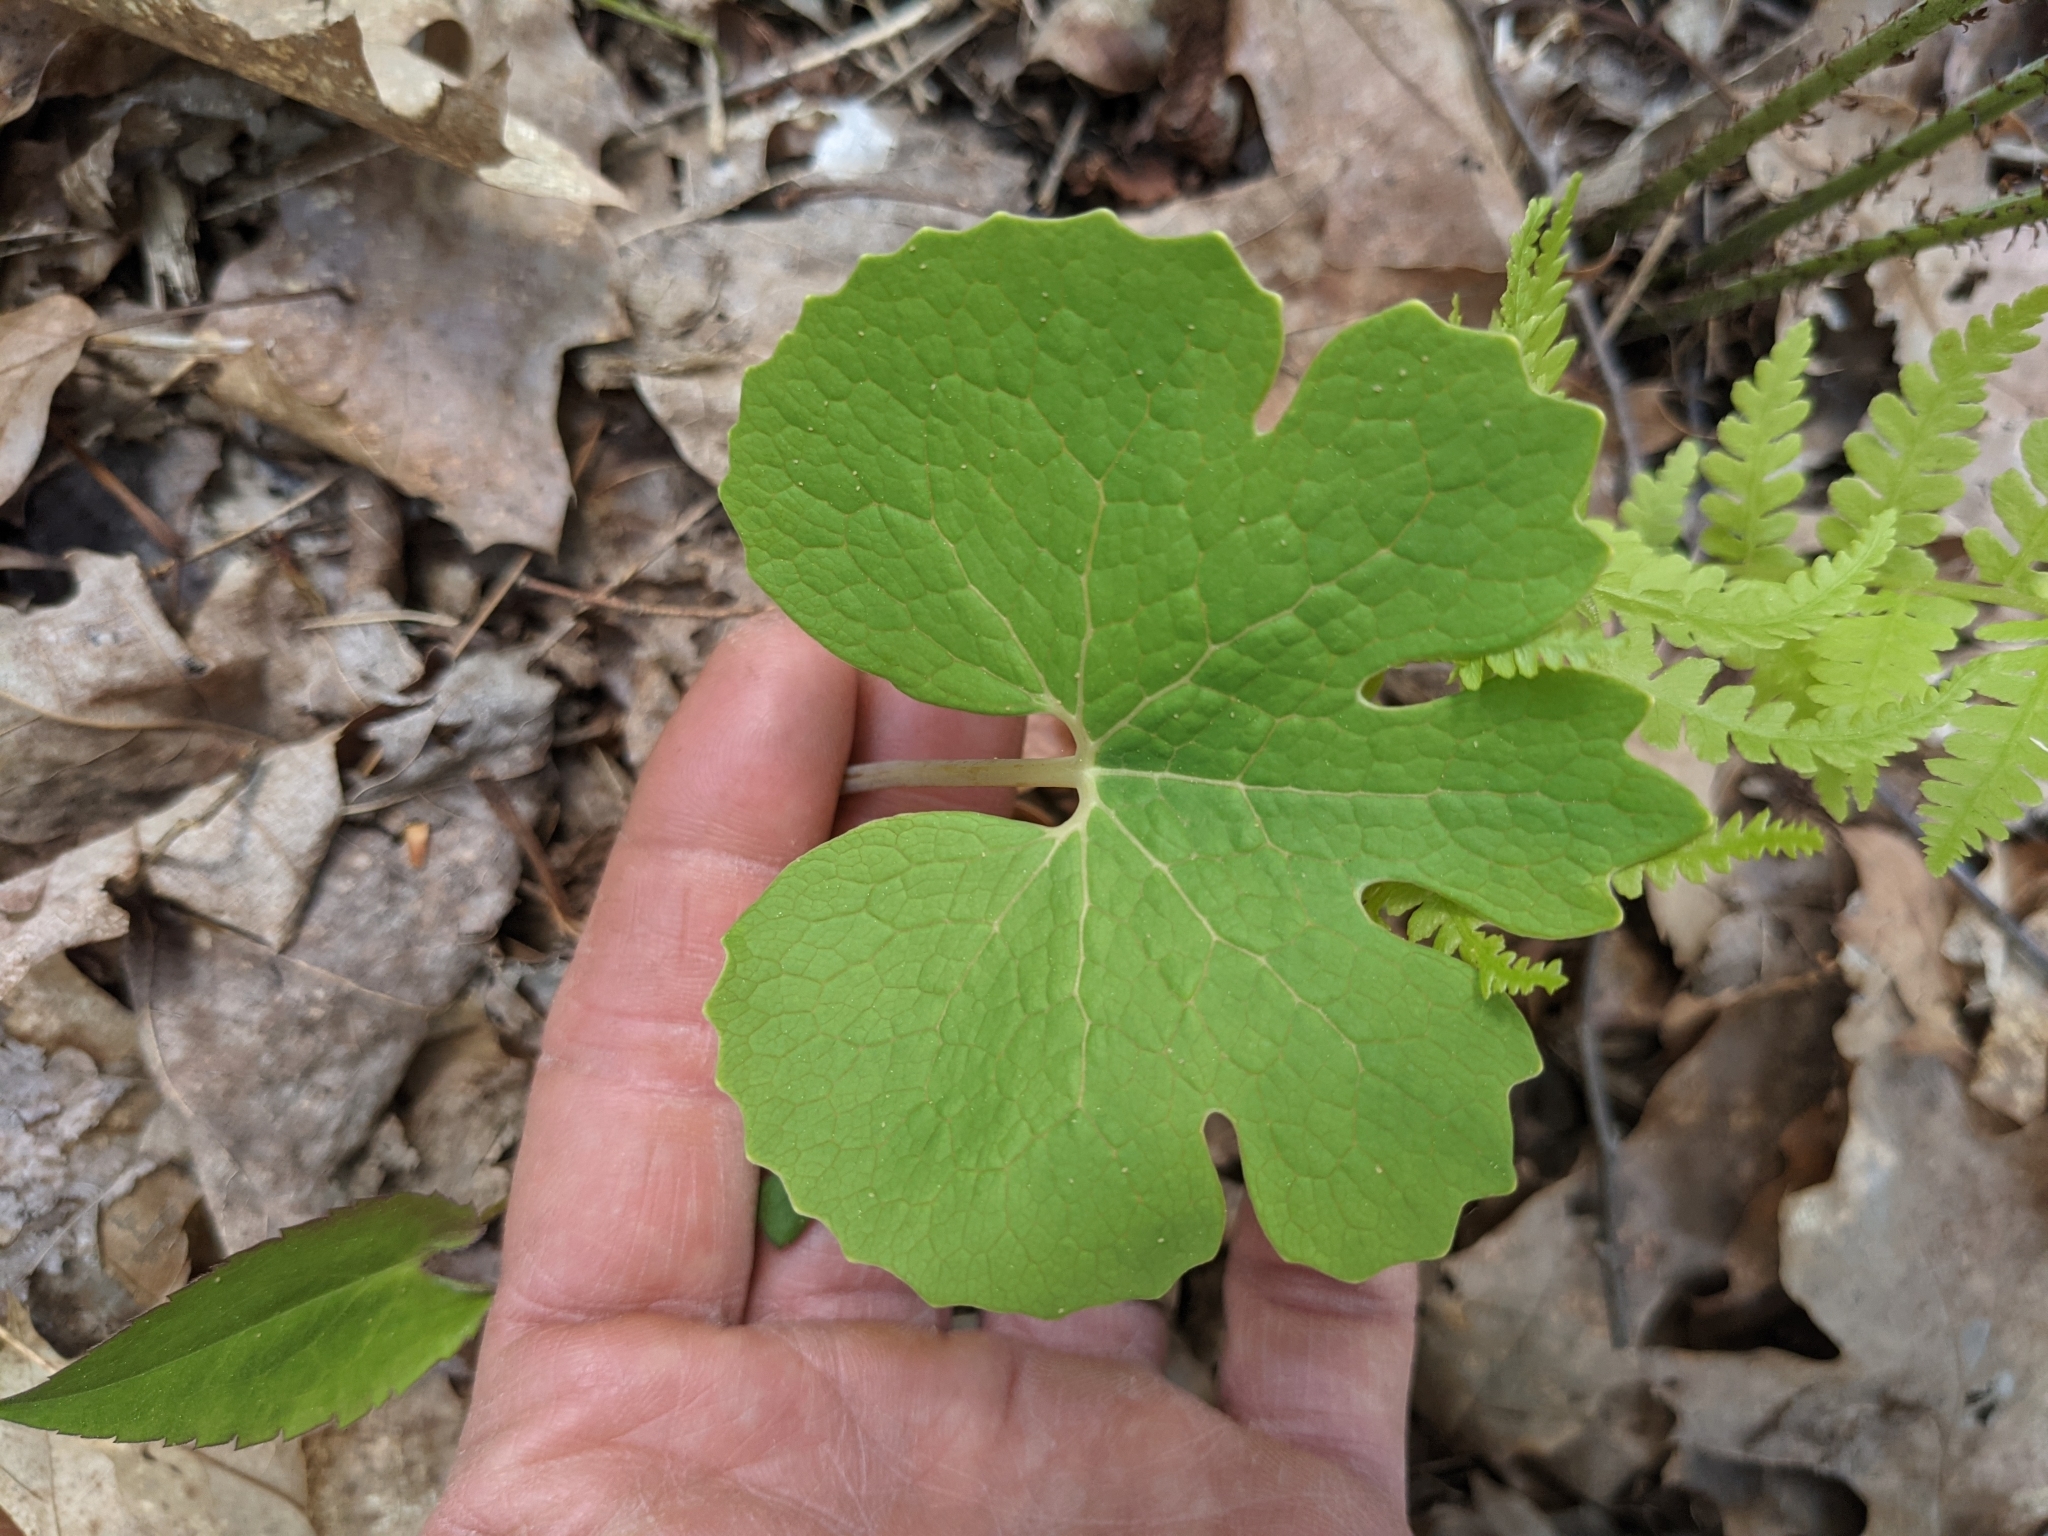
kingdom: Plantae
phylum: Tracheophyta
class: Magnoliopsida
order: Ranunculales
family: Papaveraceae
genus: Sanguinaria
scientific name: Sanguinaria canadensis
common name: Bloodroot
